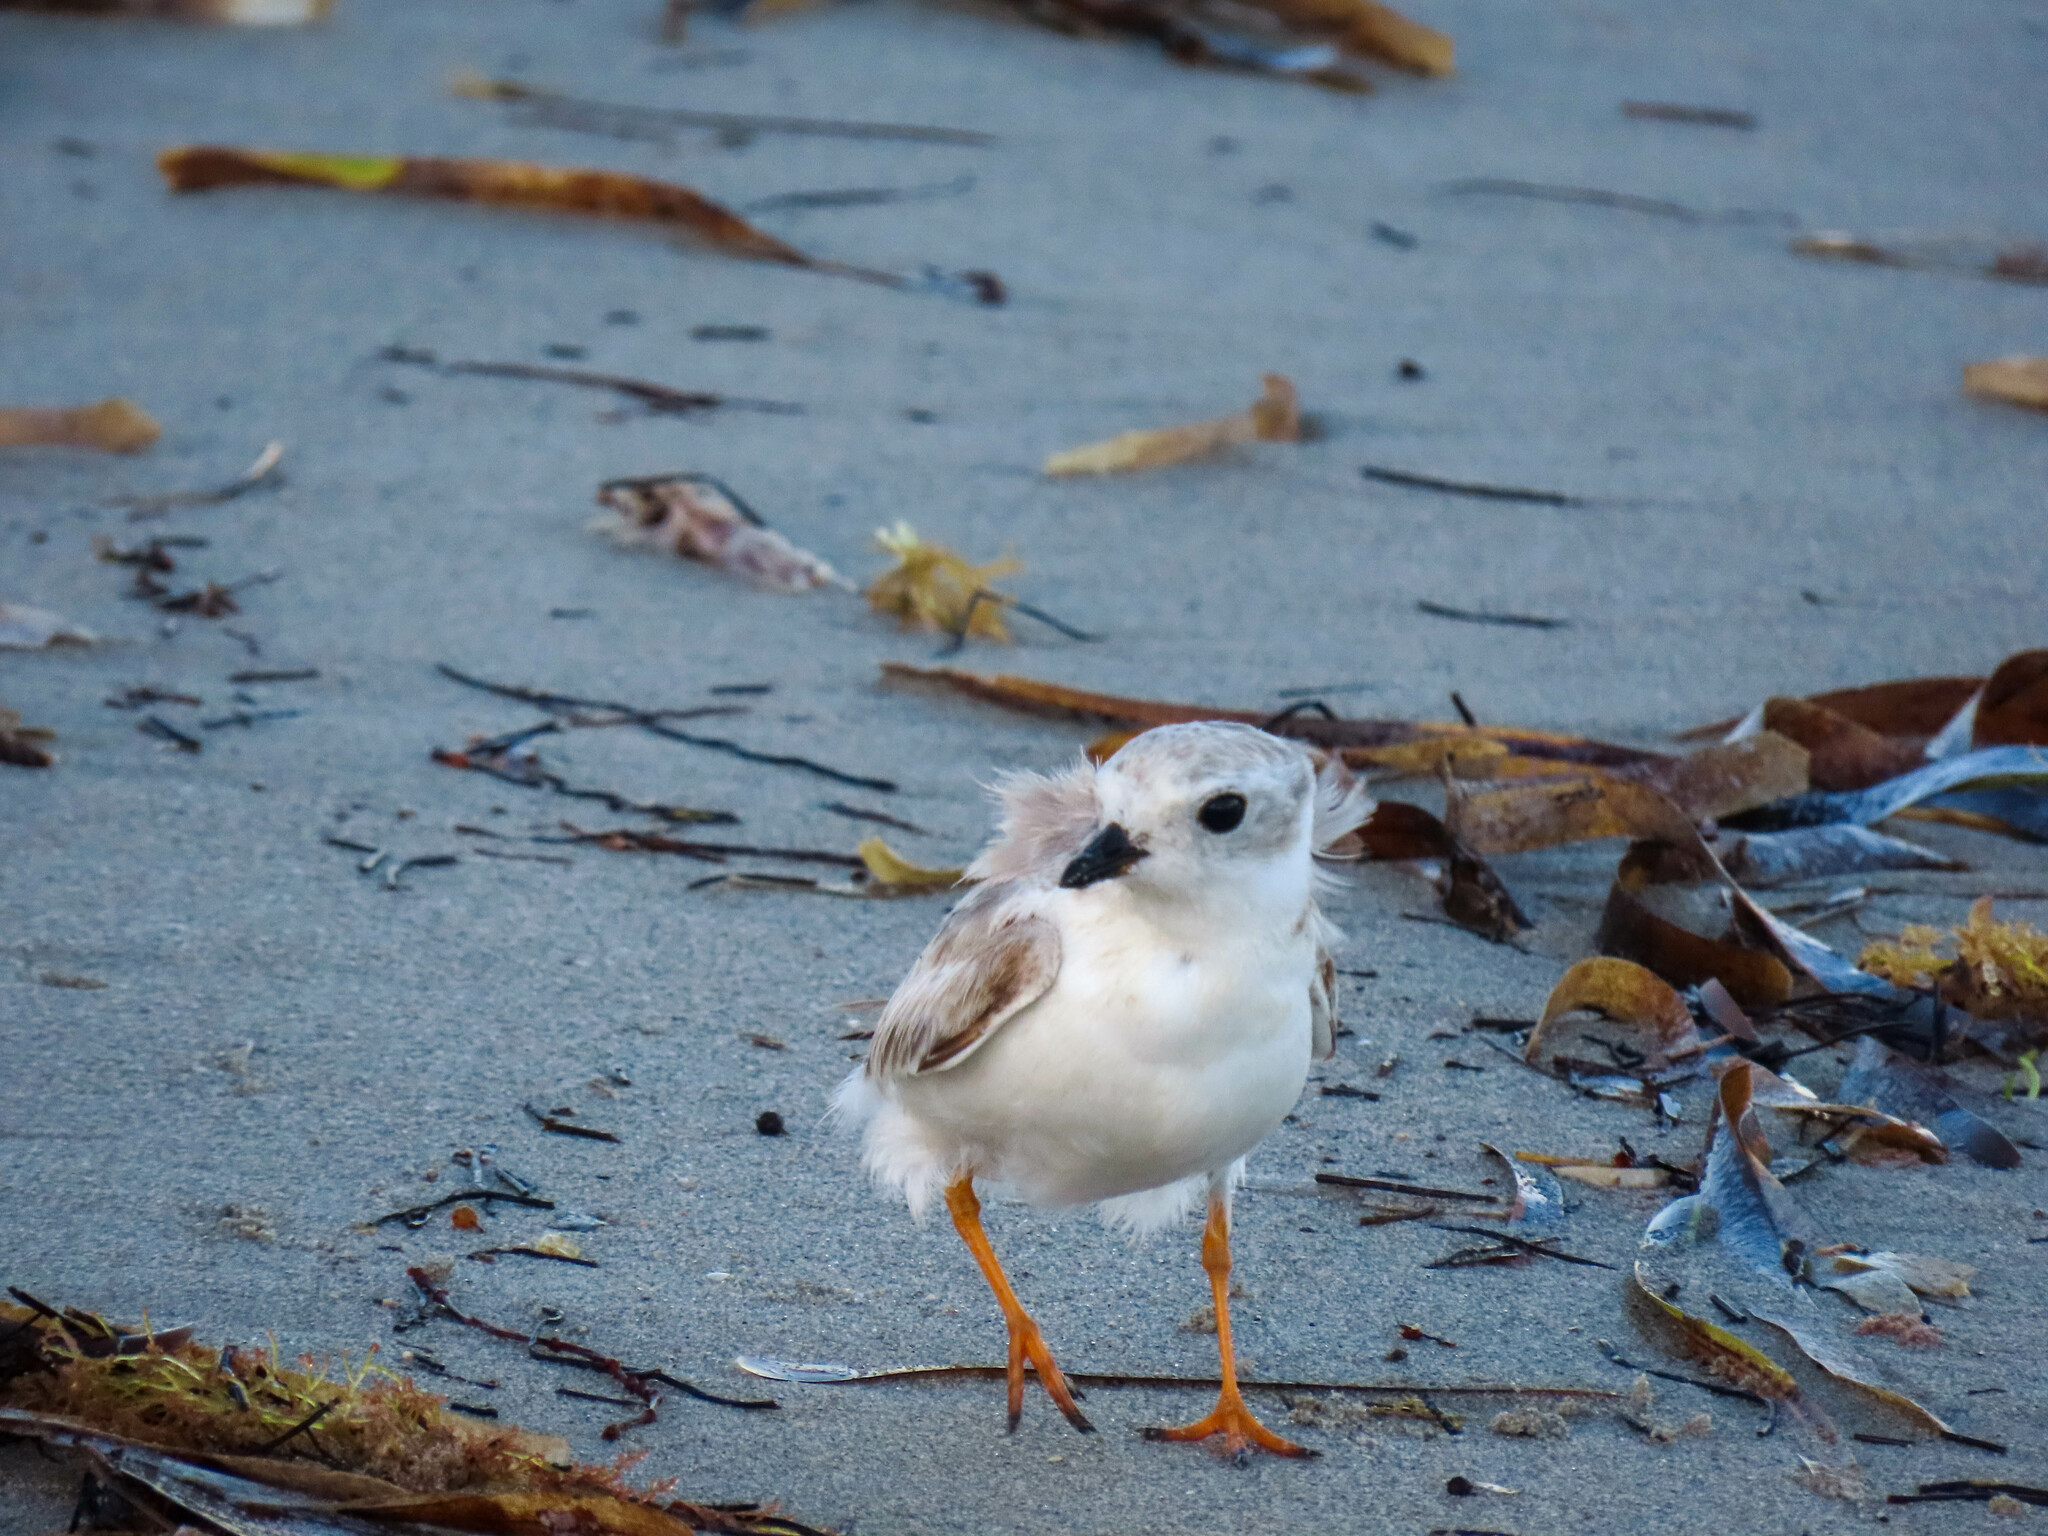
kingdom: Animalia
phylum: Chordata
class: Aves
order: Charadriiformes
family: Charadriidae
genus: Charadrius
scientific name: Charadrius melodus
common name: Piping plover
